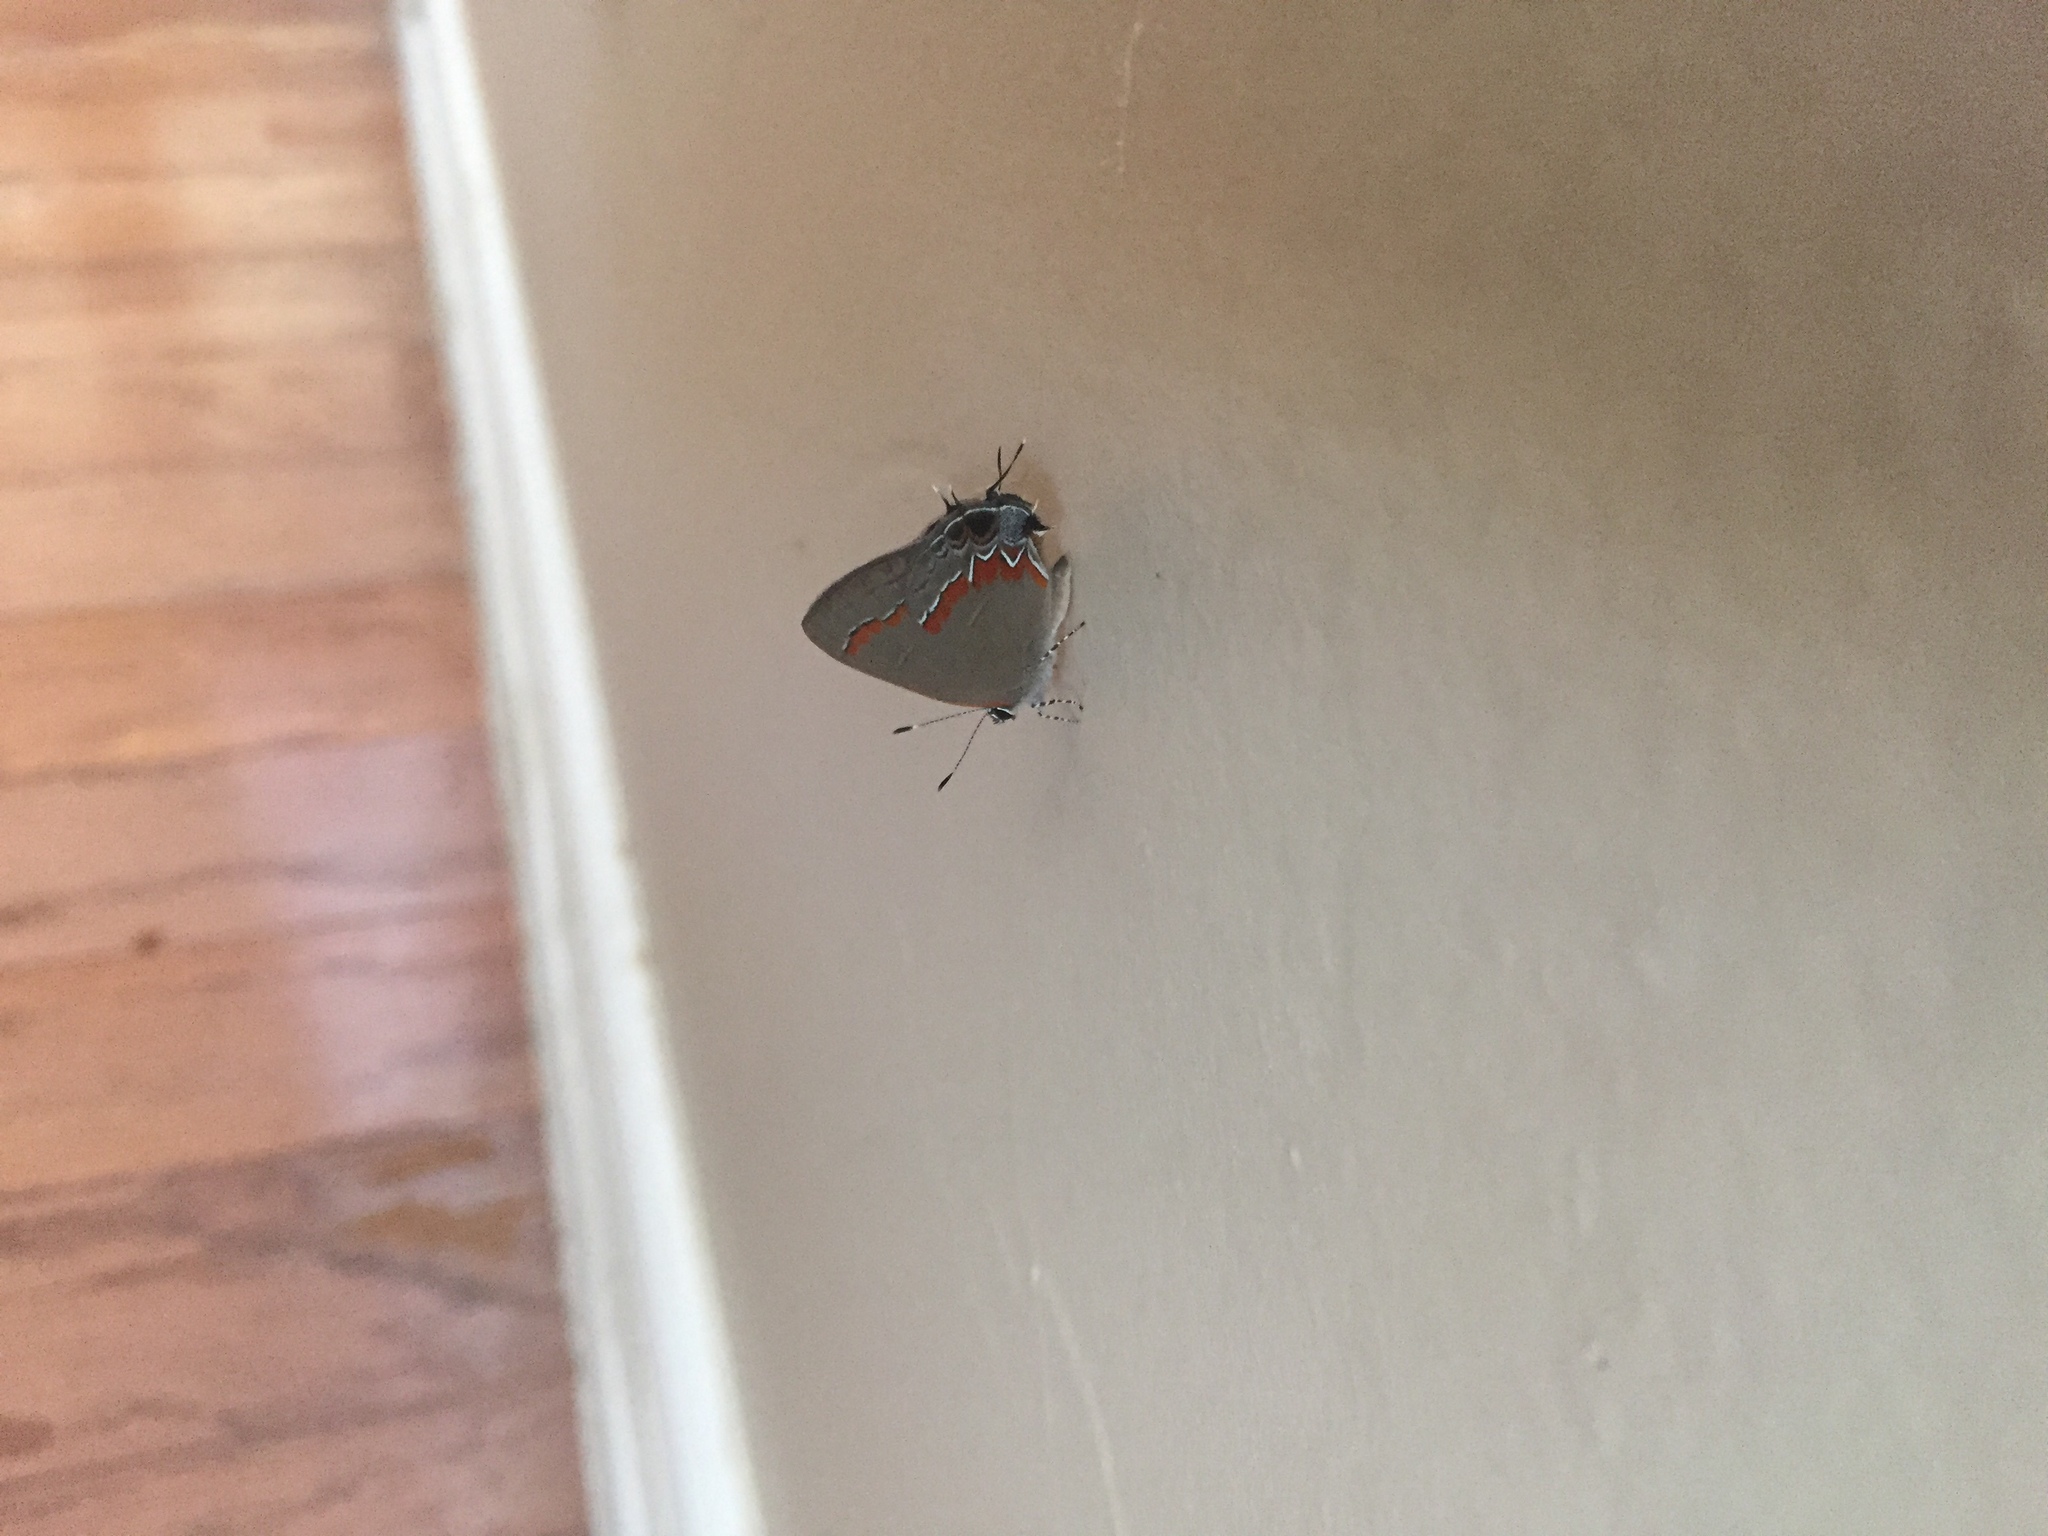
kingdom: Animalia
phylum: Arthropoda
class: Insecta
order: Lepidoptera
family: Lycaenidae
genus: Calycopis
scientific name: Calycopis cecrops
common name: Red-banded hairstreak
